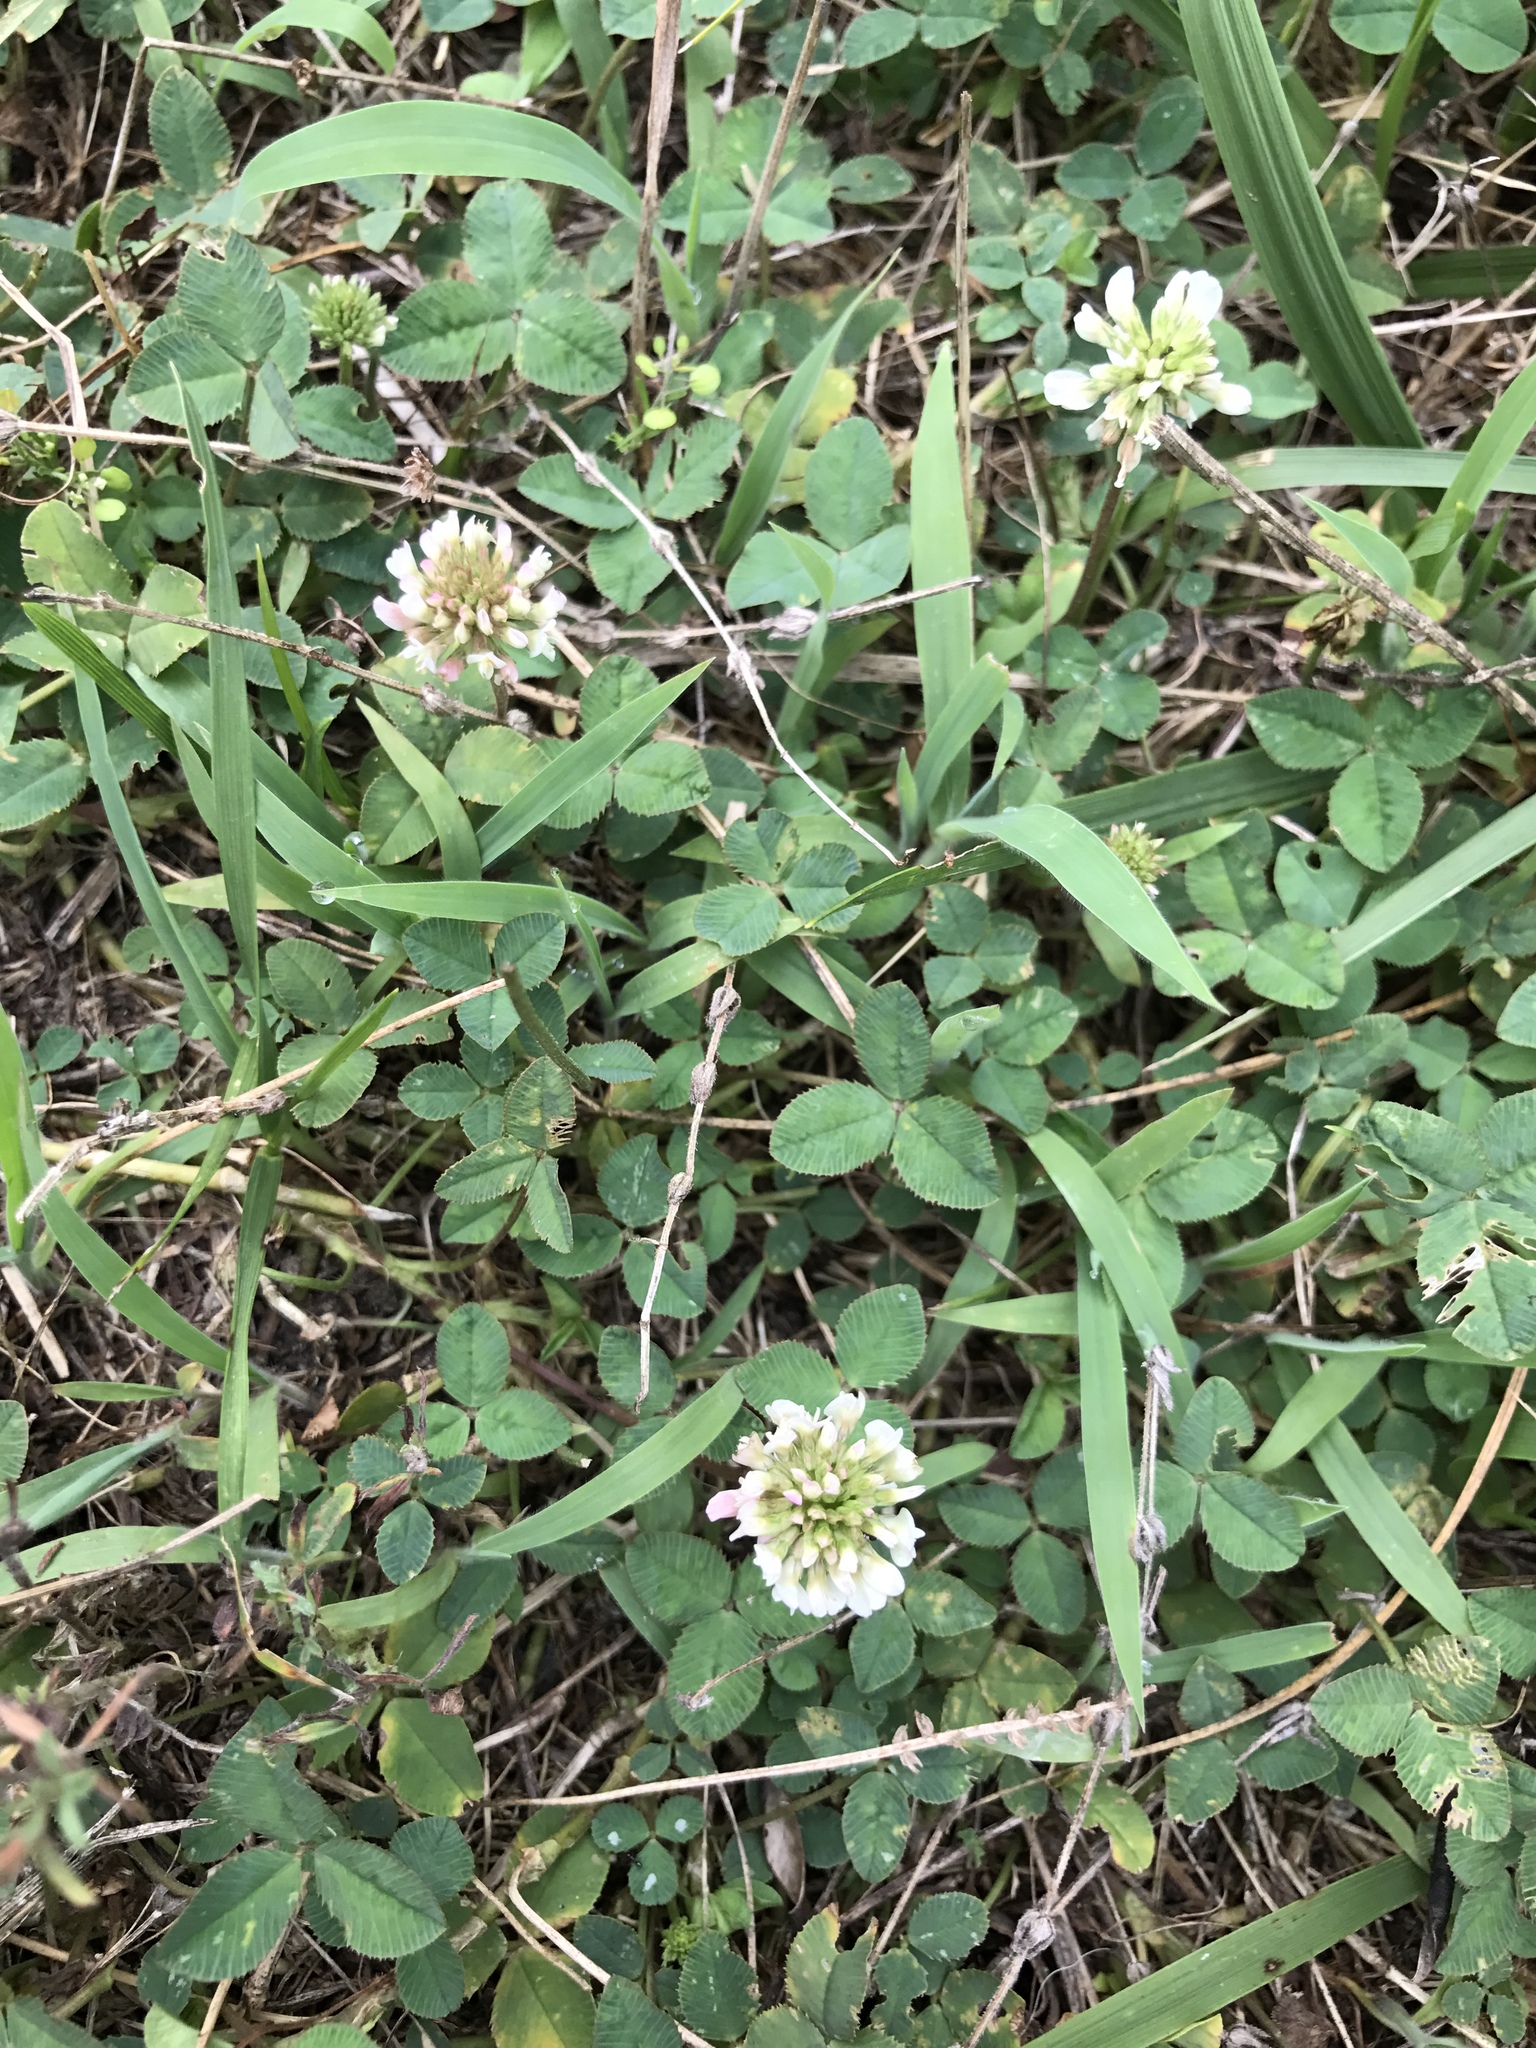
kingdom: Plantae
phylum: Tracheophyta
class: Magnoliopsida
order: Fabales
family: Fabaceae
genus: Trifolium
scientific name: Trifolium repens
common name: White clover
